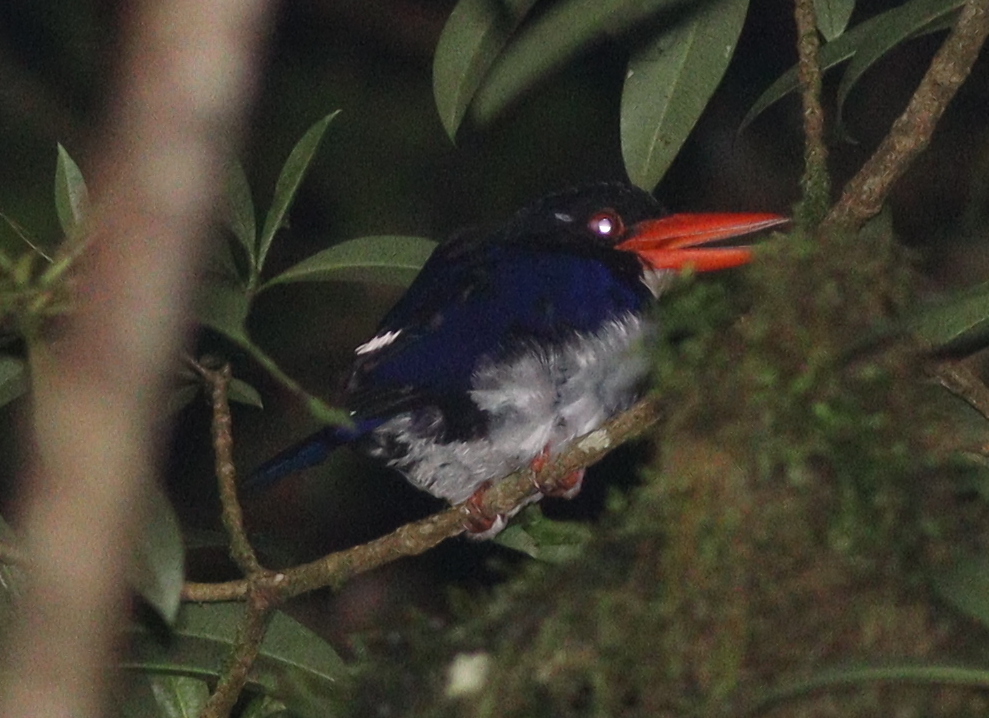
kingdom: Animalia
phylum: Chordata
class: Aves
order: Coraciiformes
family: Alcedinidae
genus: Caridonax
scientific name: Caridonax fulgidus
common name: Glittering kingfisher
